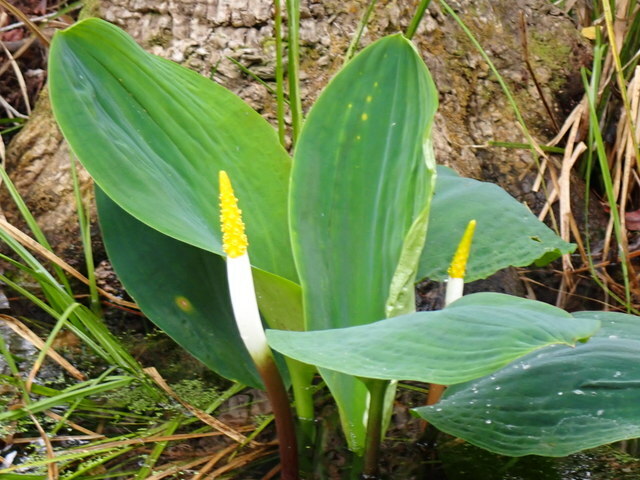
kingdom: Plantae
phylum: Tracheophyta
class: Liliopsida
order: Alismatales
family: Araceae
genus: Orontium
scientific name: Orontium aquaticum
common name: Golden-club
